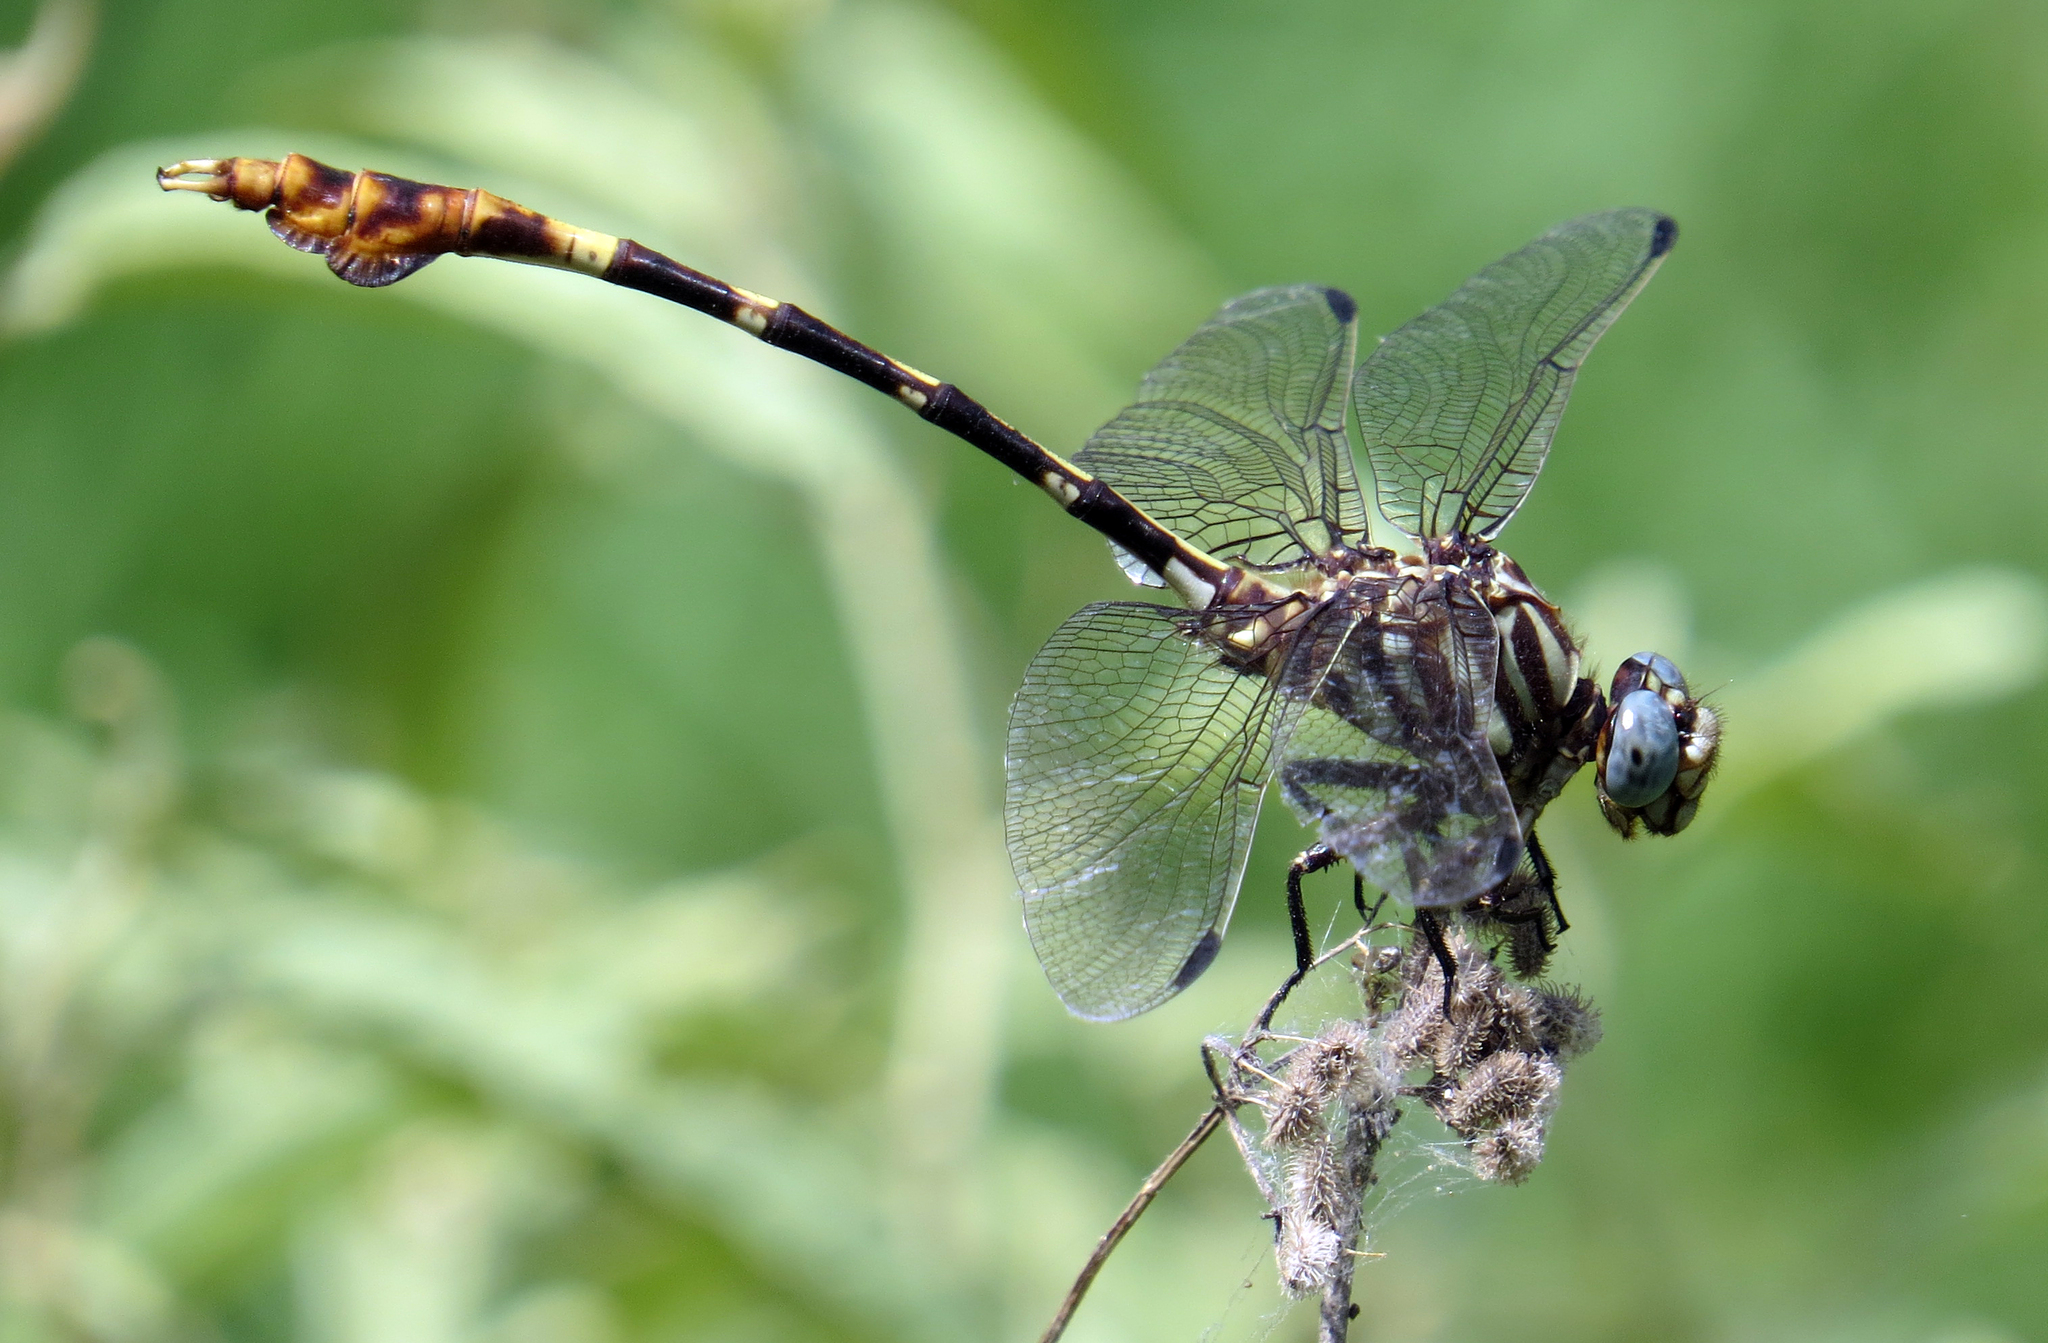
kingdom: Animalia
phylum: Arthropoda
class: Insecta
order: Odonata
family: Gomphidae
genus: Phyllogomphoides
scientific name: Phyllogomphoides albrighti
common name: Five-striped leaftail
